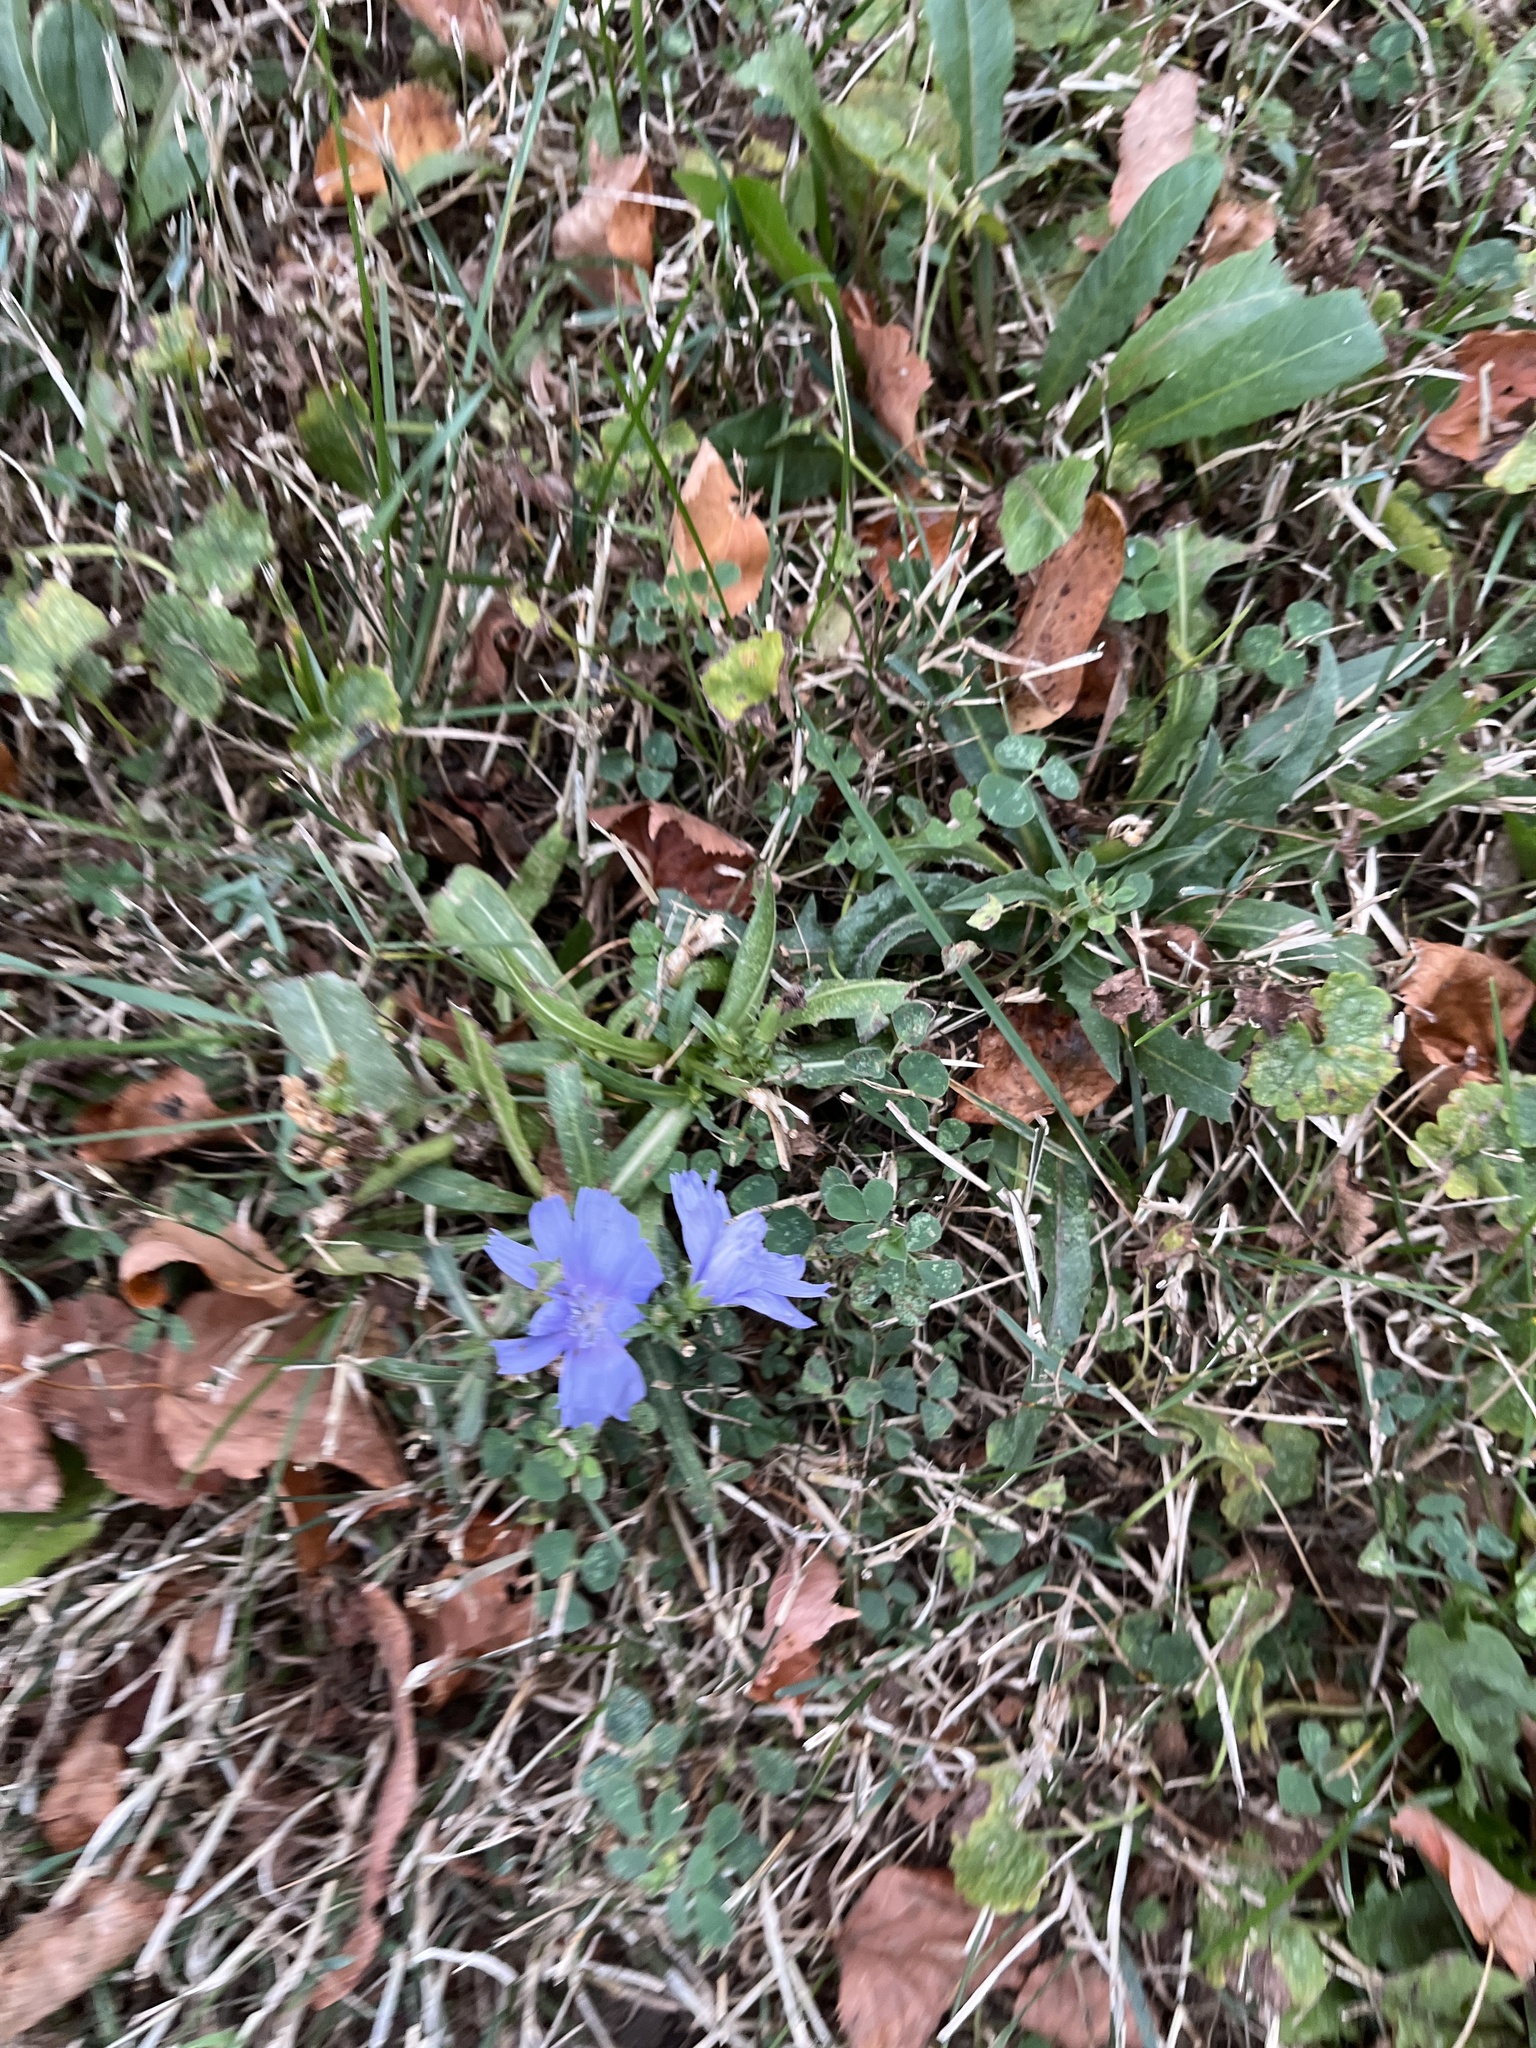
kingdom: Plantae
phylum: Tracheophyta
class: Magnoliopsida
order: Asterales
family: Asteraceae
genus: Cichorium
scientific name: Cichorium intybus
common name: Chicory
